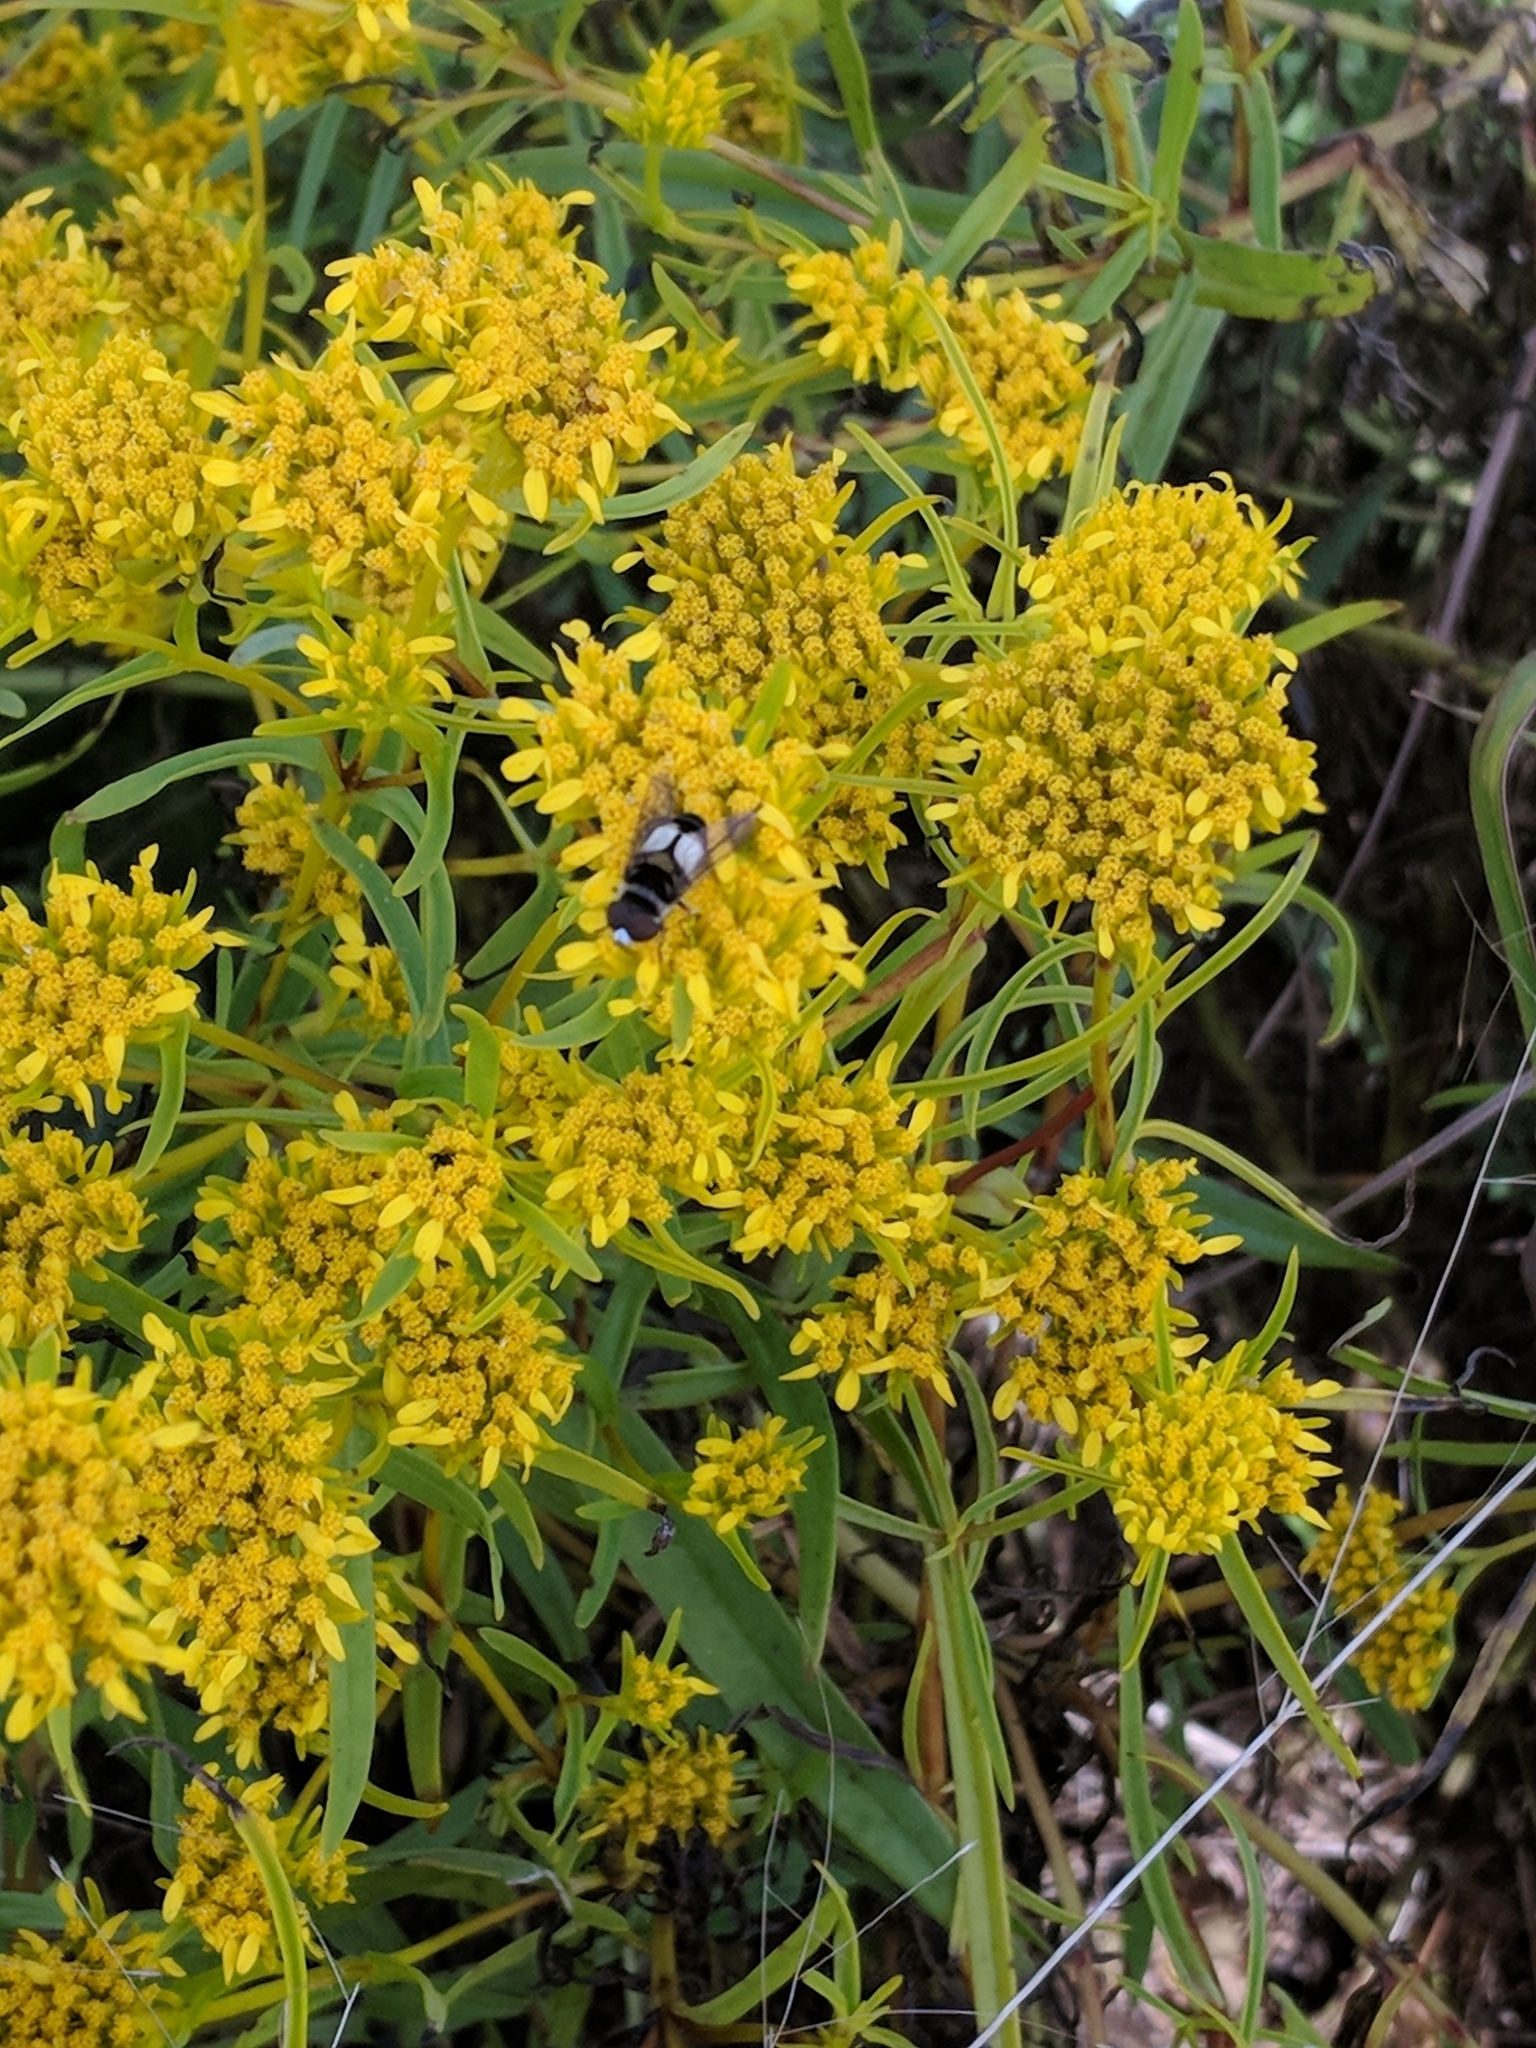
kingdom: Animalia
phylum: Arthropoda
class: Insecta
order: Diptera
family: Syrphidae
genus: Palpada
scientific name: Palpada albifrons
